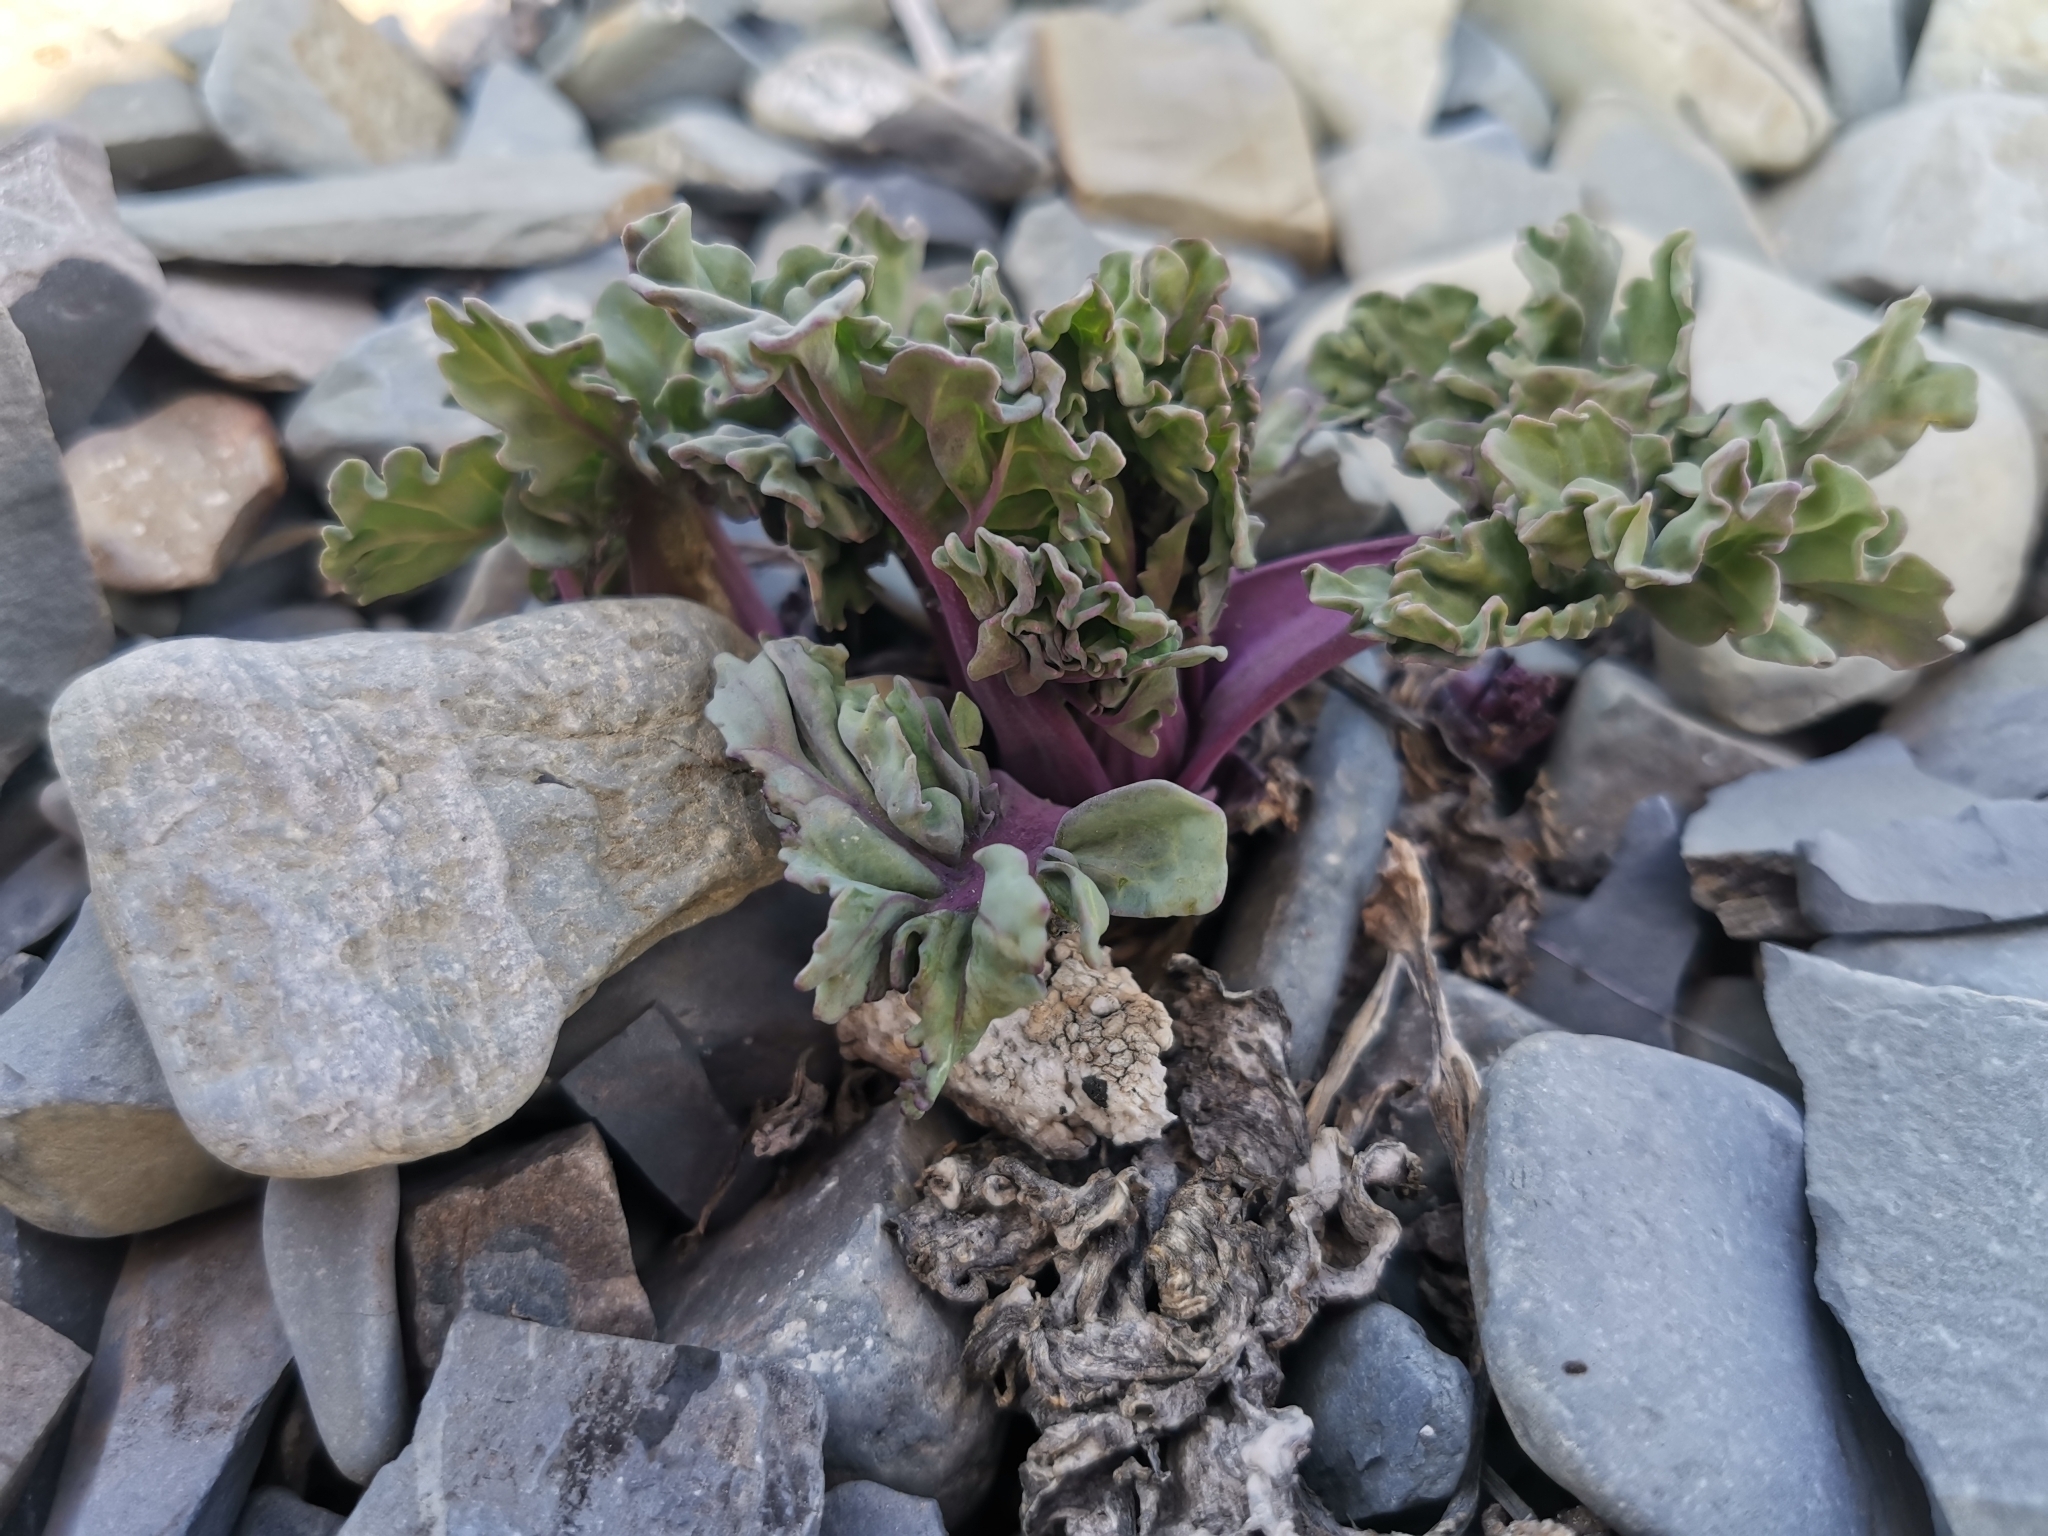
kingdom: Plantae
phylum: Tracheophyta
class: Magnoliopsida
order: Brassicales
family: Brassicaceae
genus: Crambe
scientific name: Crambe maritima
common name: Sea-kale
